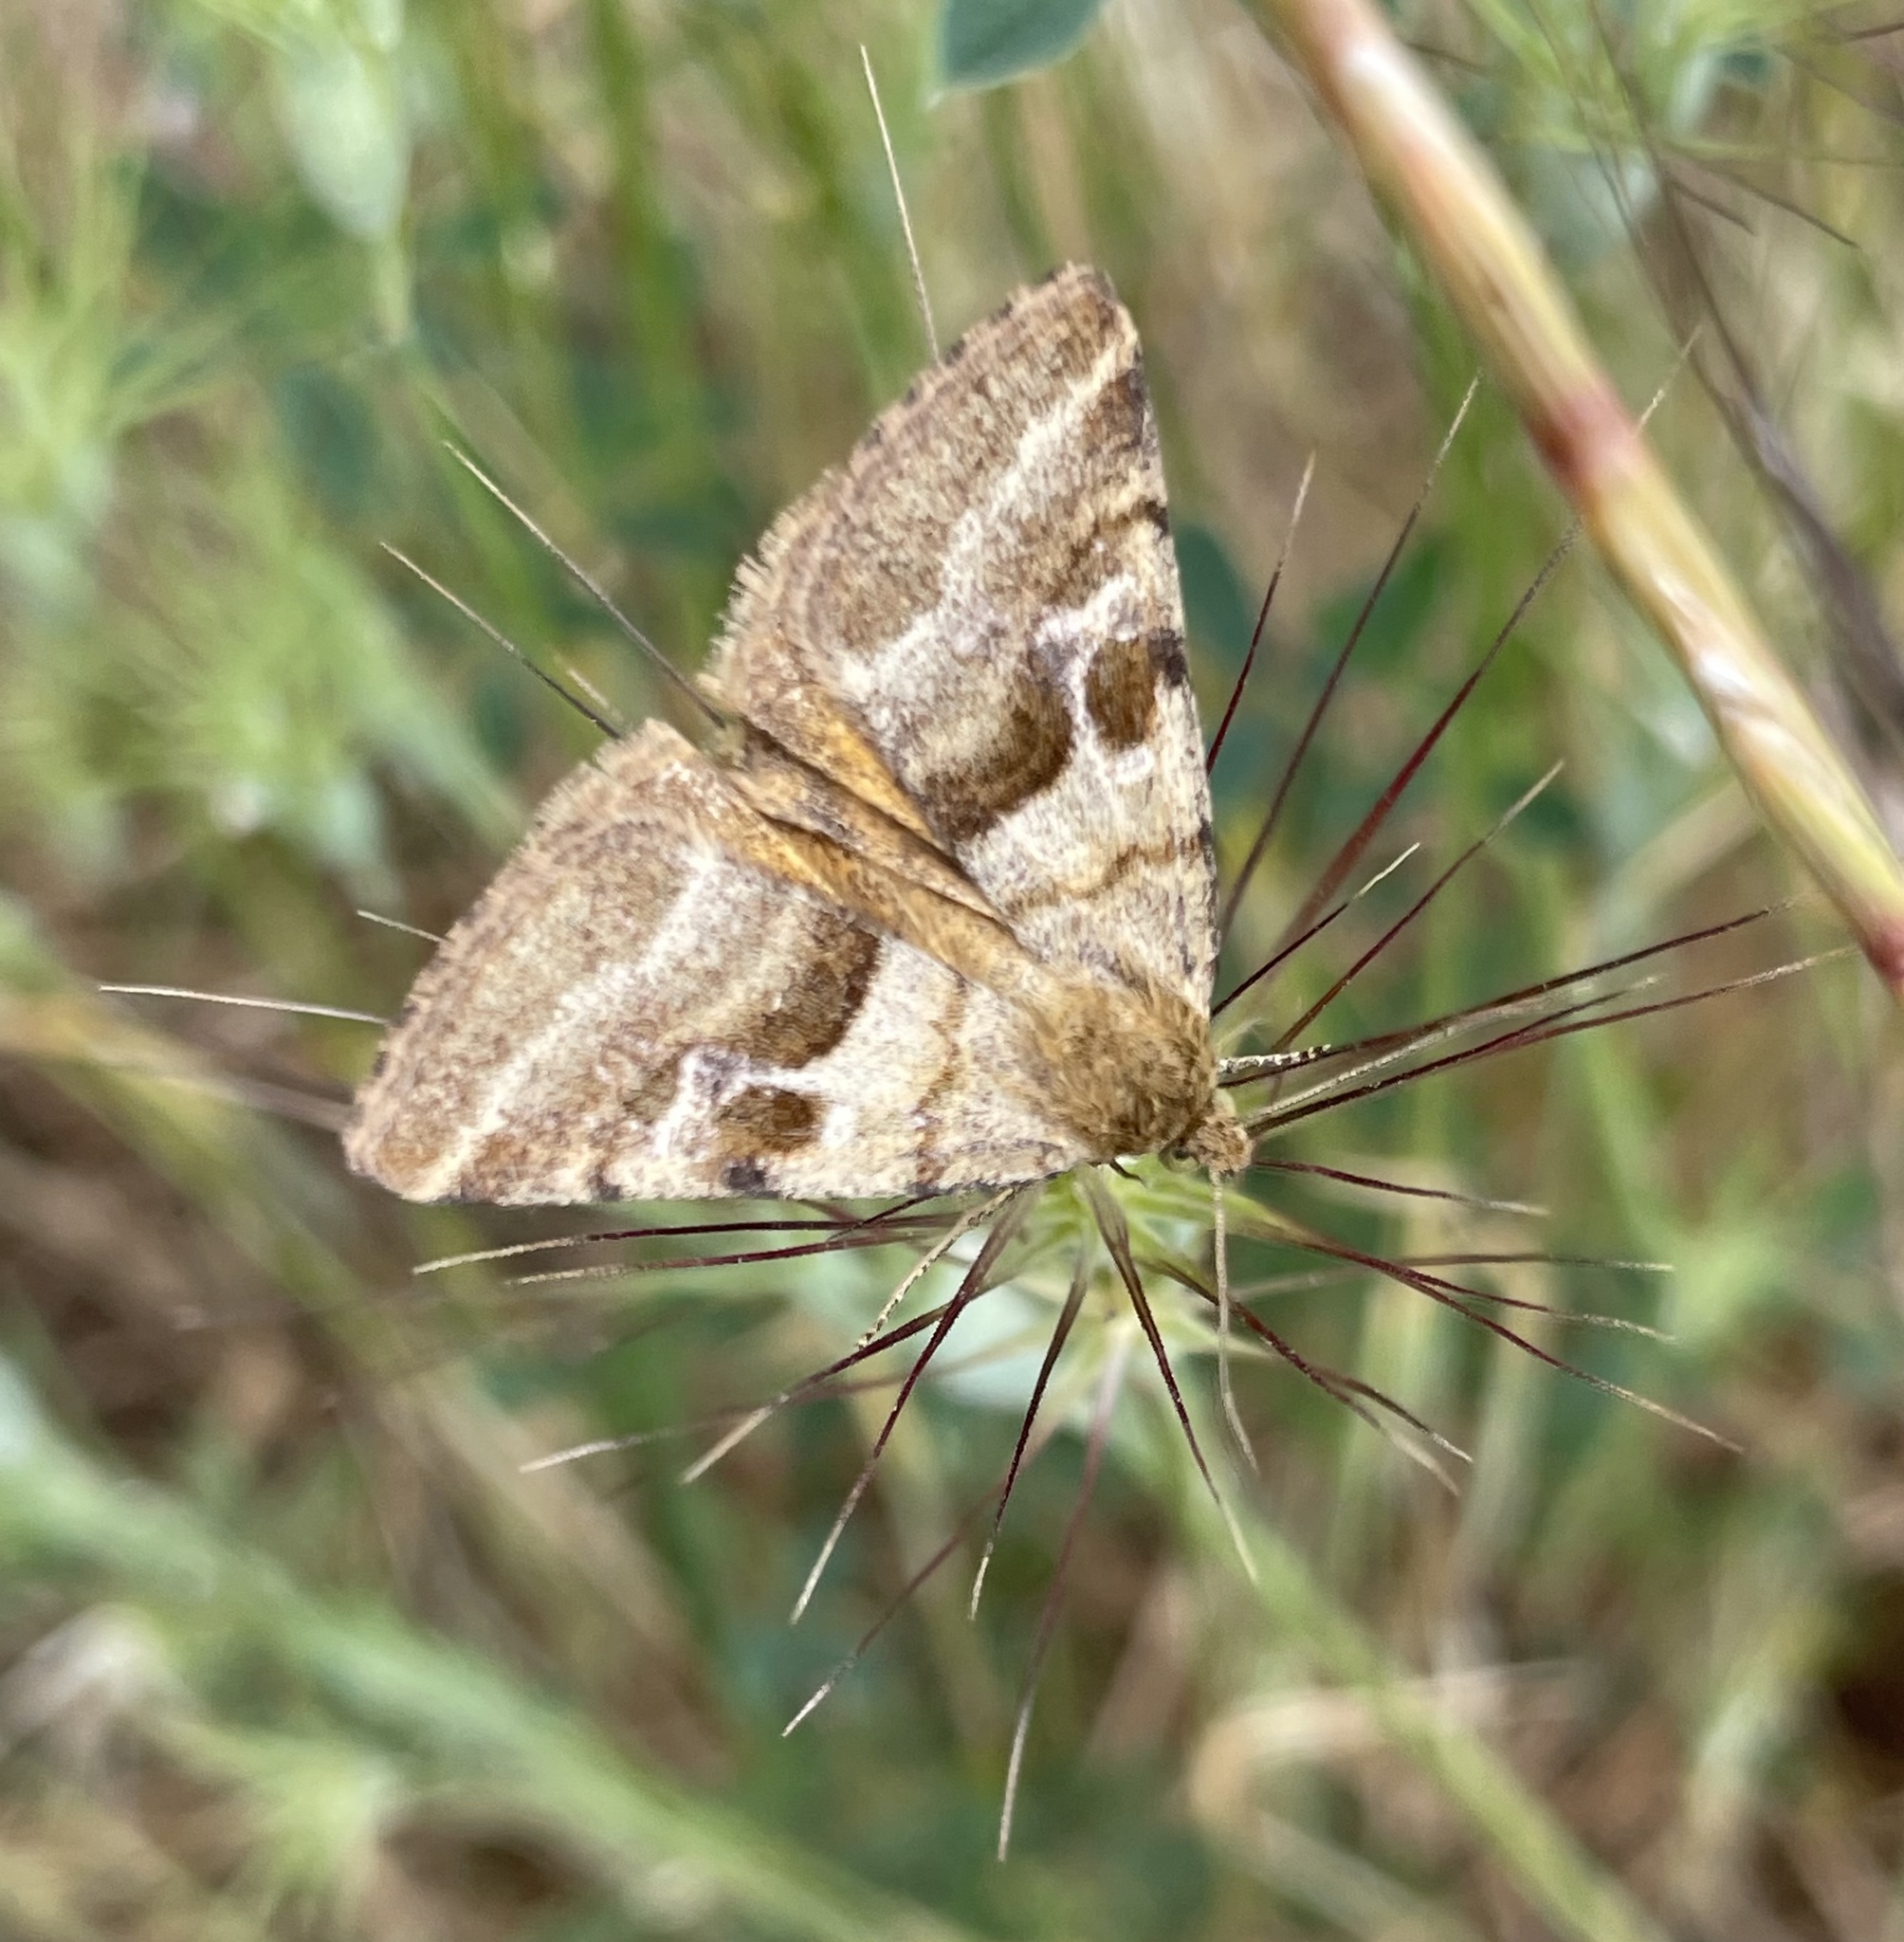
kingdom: Animalia
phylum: Arthropoda
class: Insecta
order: Lepidoptera
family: Noctuidae
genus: Synthymia
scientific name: Synthymia fixa
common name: Goldwing
